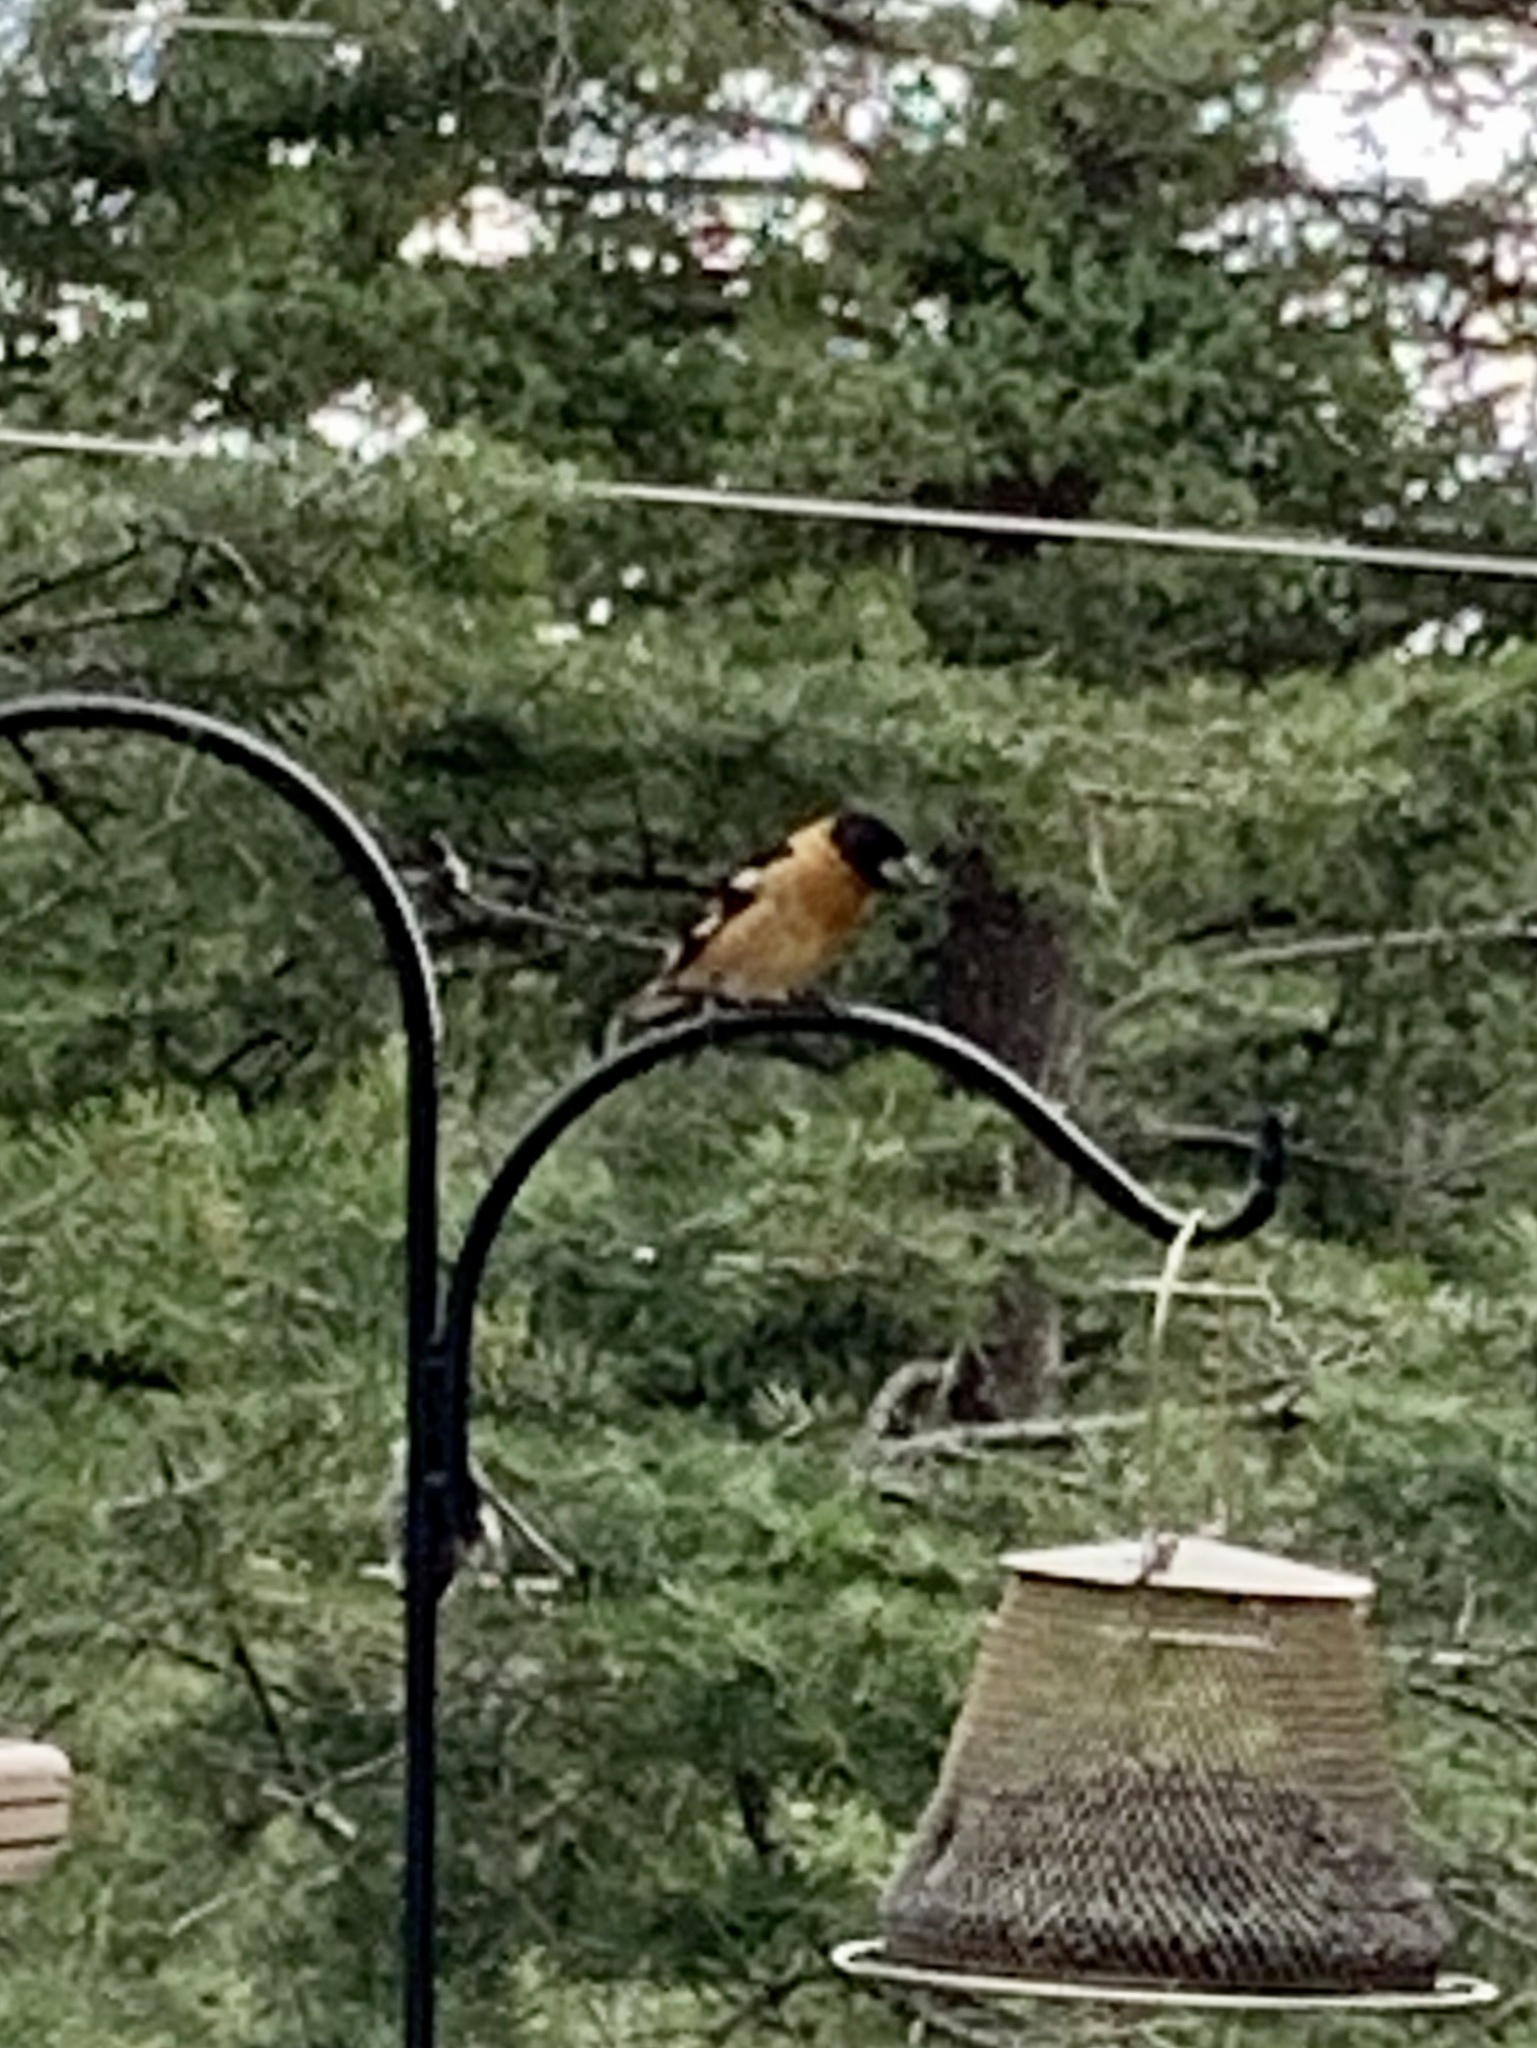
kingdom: Animalia
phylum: Chordata
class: Aves
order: Passeriformes
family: Cardinalidae
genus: Pheucticus
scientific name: Pheucticus melanocephalus
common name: Black-headed grosbeak
